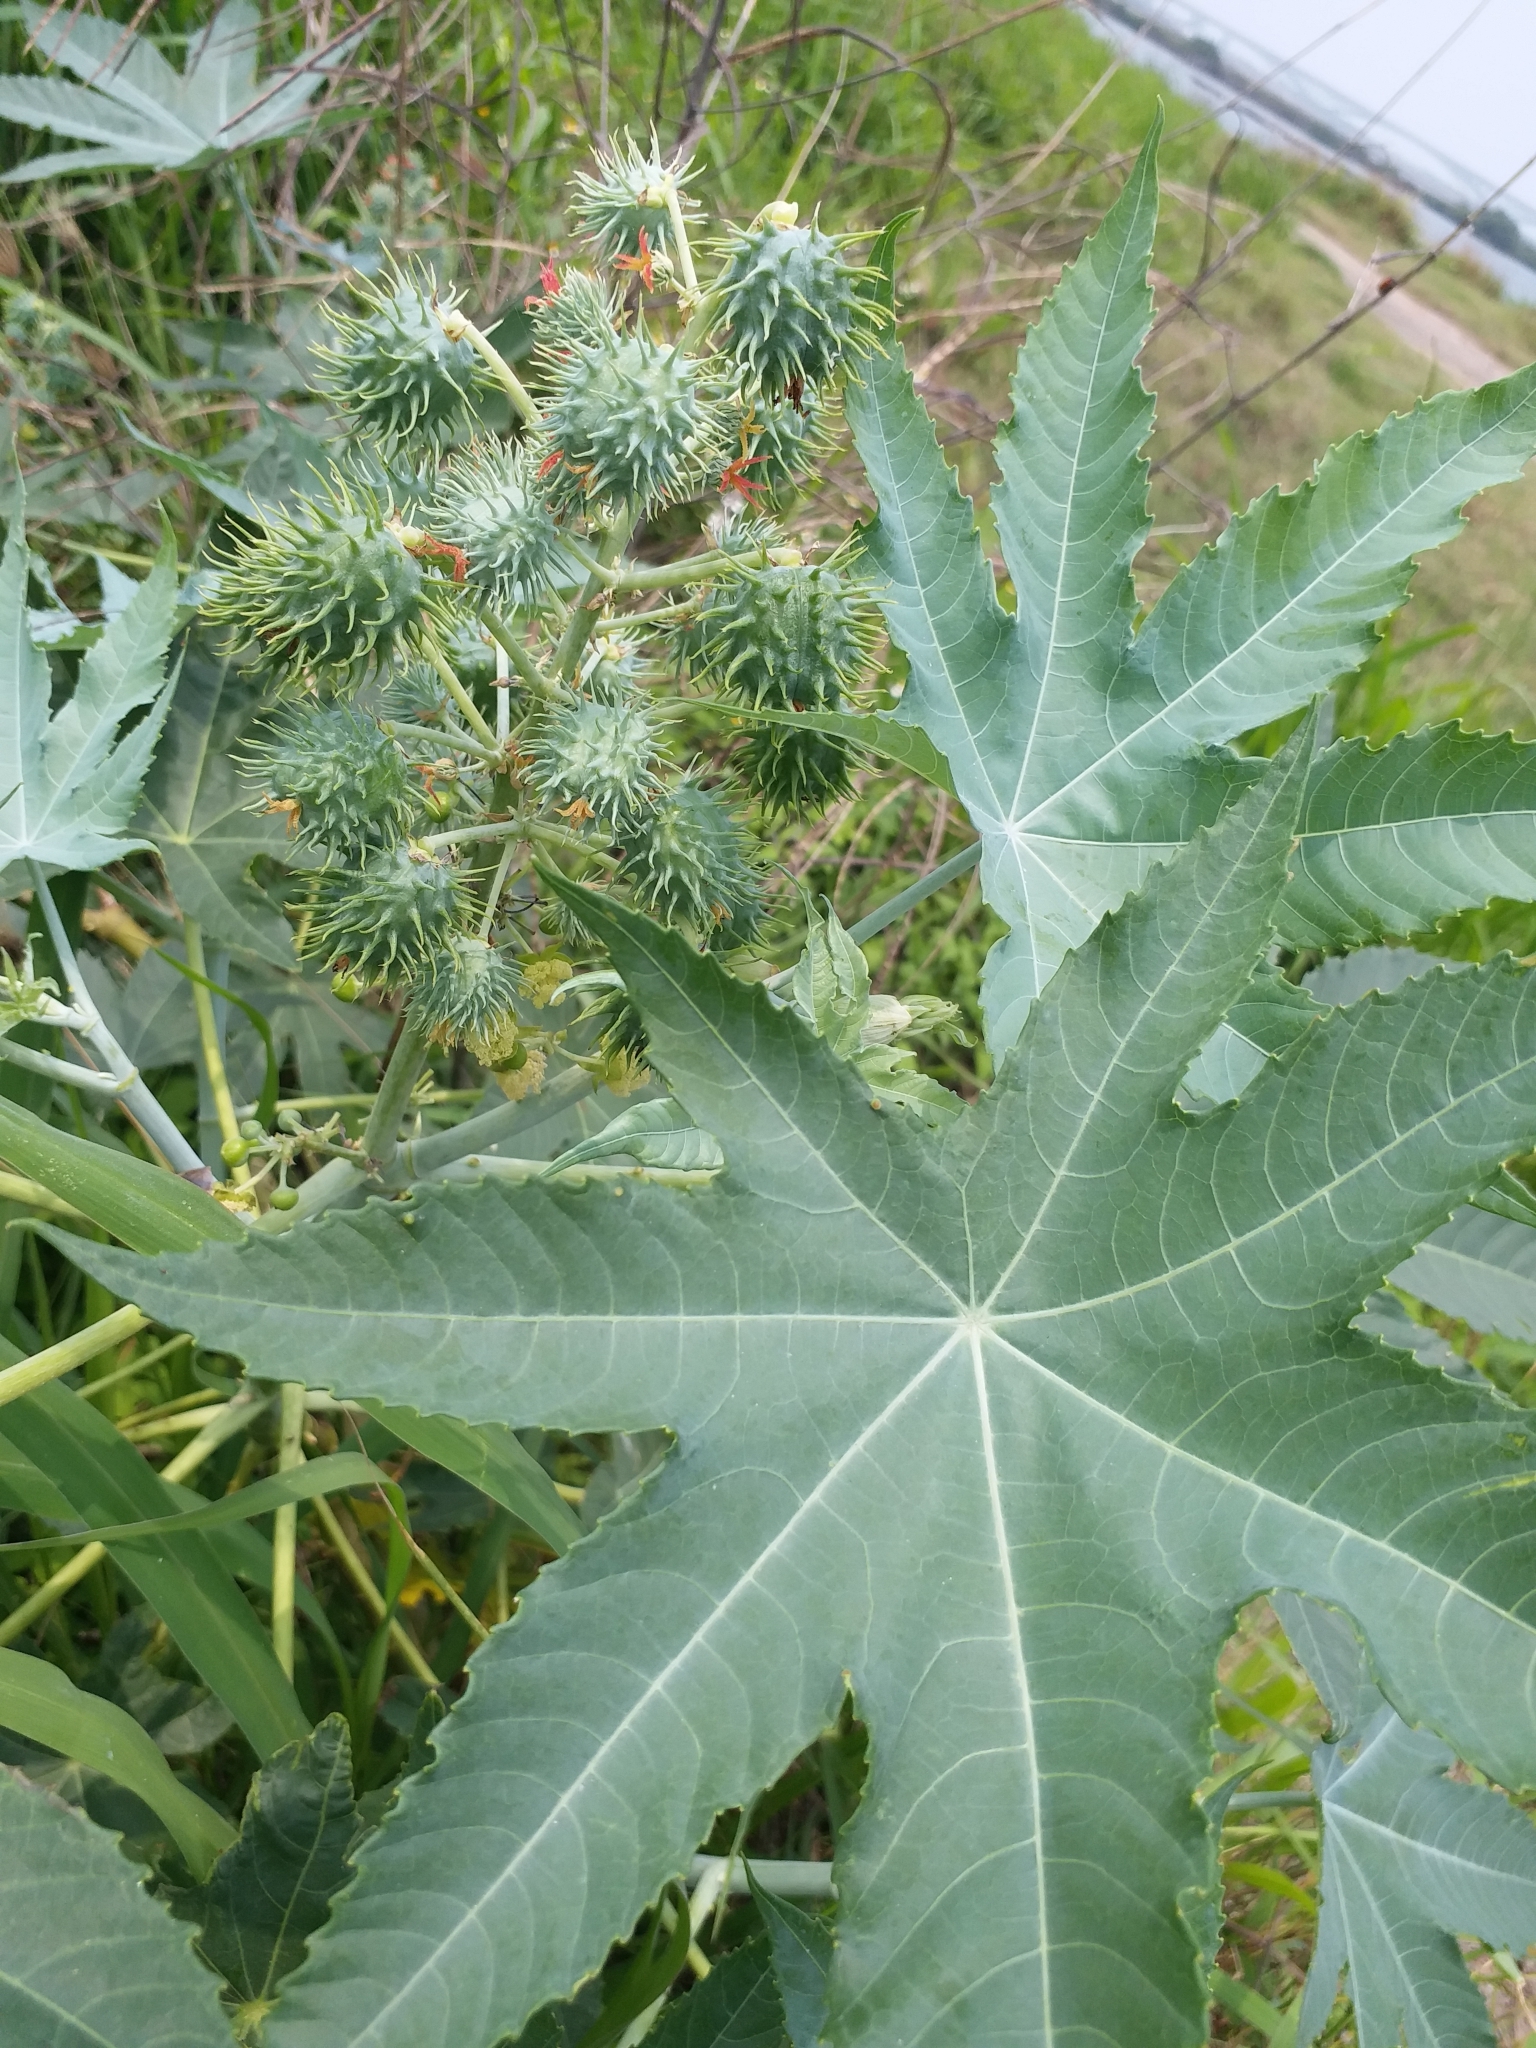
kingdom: Plantae
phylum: Tracheophyta
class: Magnoliopsida
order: Malpighiales
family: Euphorbiaceae
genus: Ricinus
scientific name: Ricinus communis
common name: Castor-oil-plant
